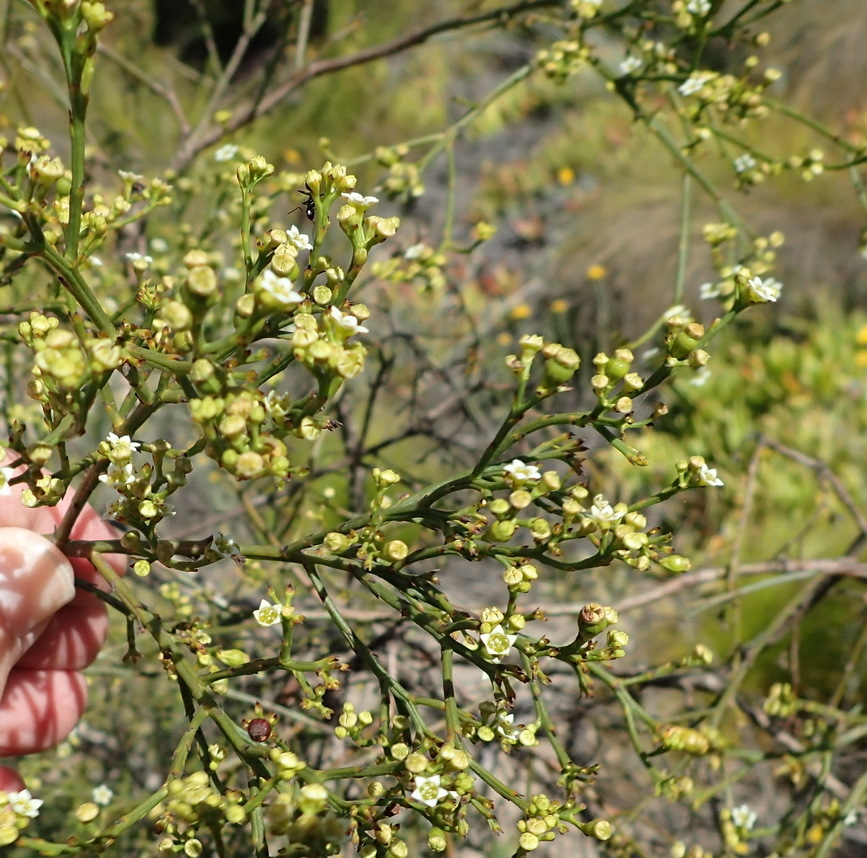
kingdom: Plantae
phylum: Tracheophyta
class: Magnoliopsida
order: Santalales
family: Thesiaceae
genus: Thesium
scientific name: Thesium virgatum
